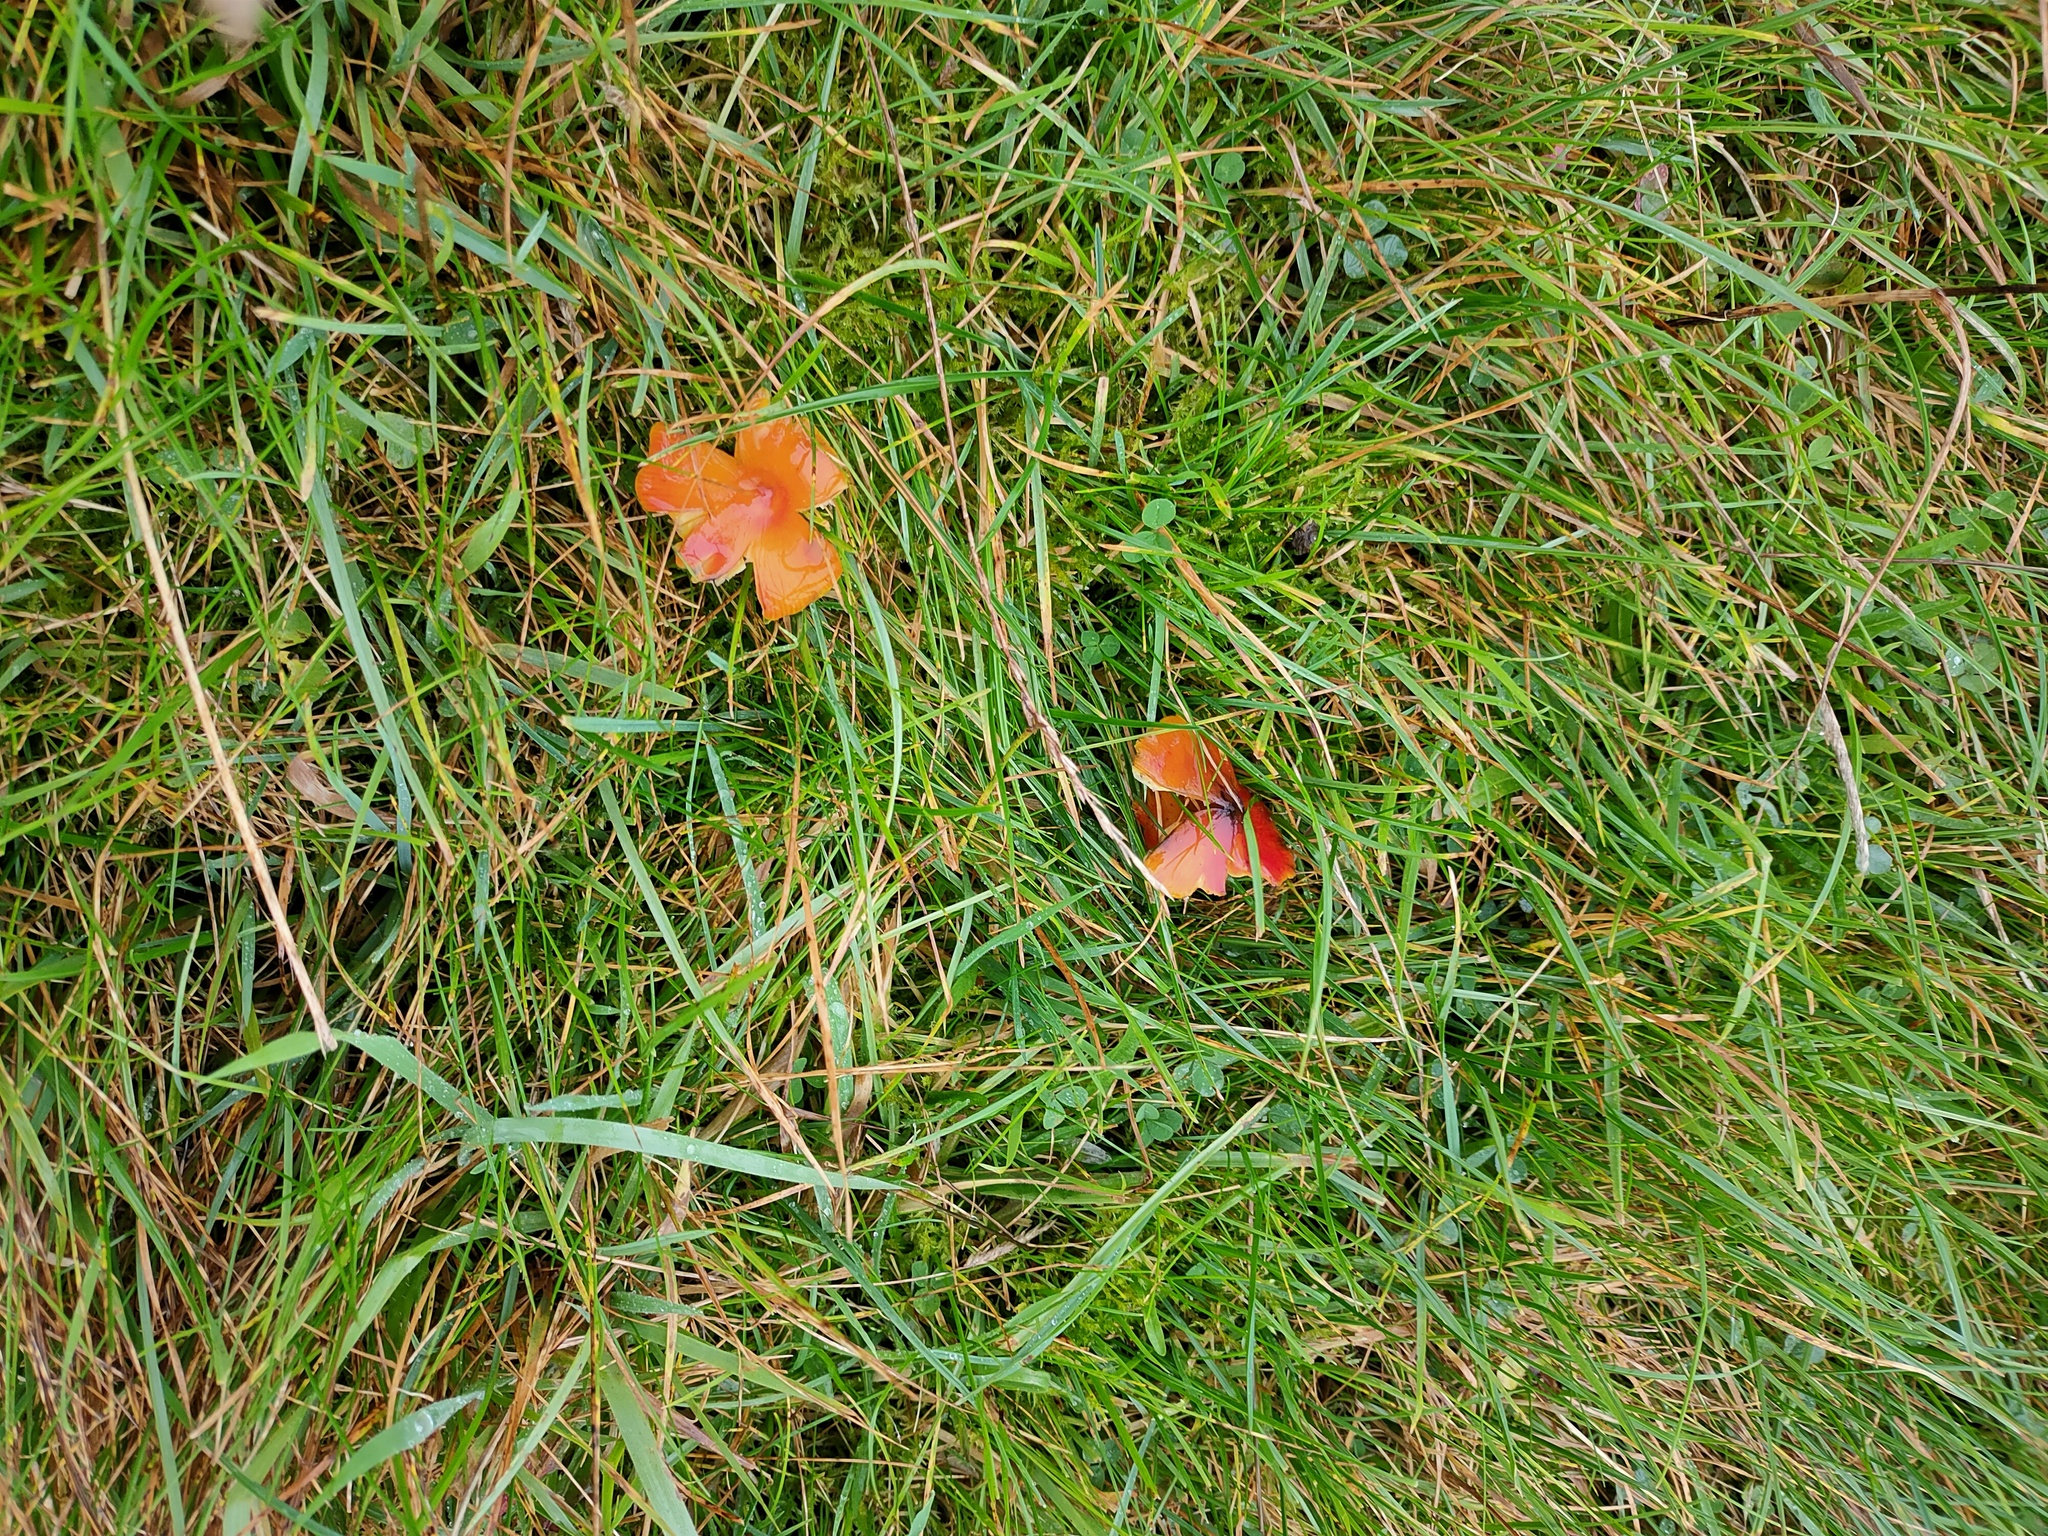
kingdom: Fungi
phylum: Basidiomycota
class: Agaricomycetes
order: Agaricales
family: Hygrophoraceae
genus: Hygrocybe
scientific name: Hygrocybe conica
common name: Blackening wax-cap
